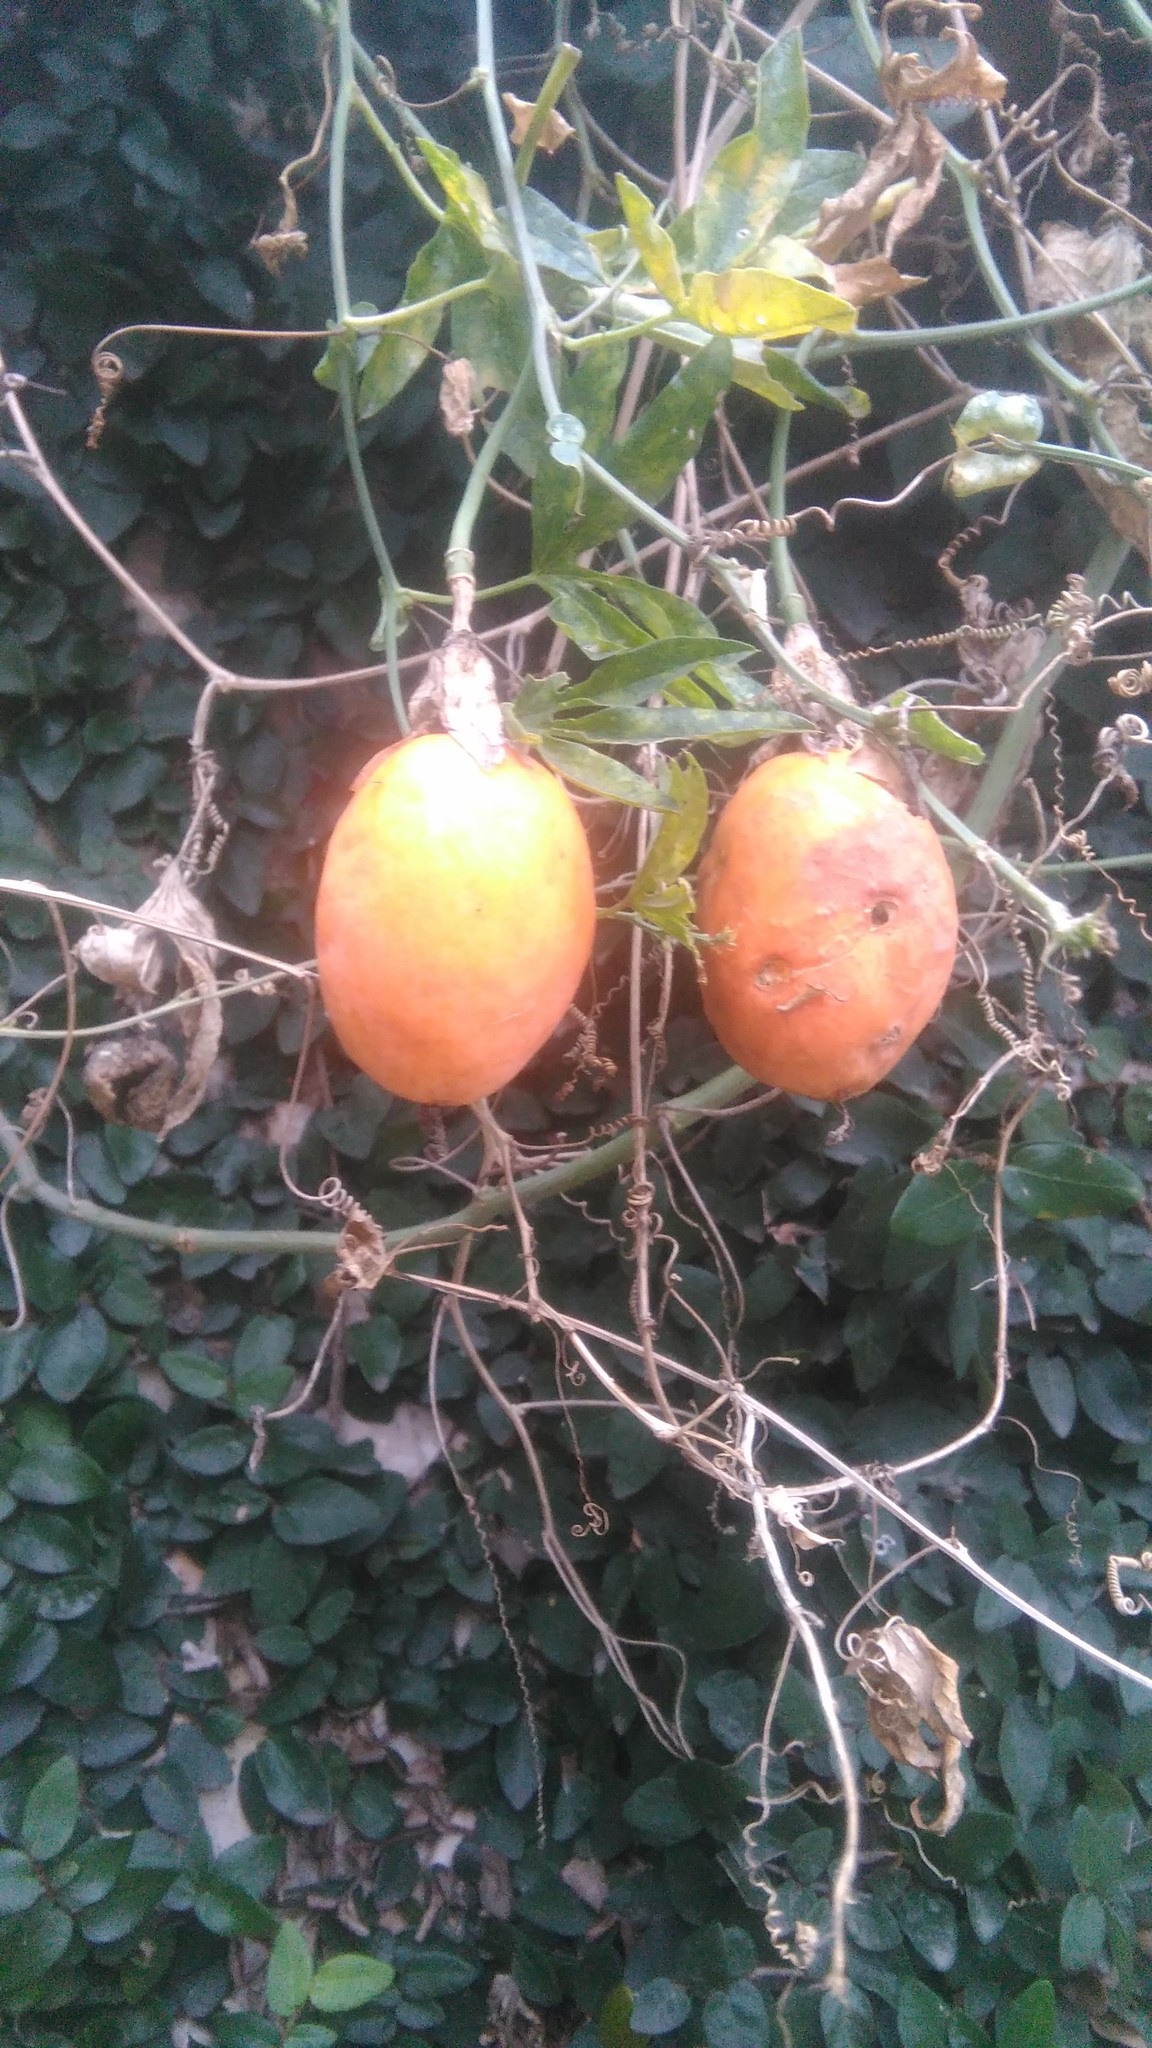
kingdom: Plantae
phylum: Tracheophyta
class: Magnoliopsida
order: Malpighiales
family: Passifloraceae
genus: Passiflora
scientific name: Passiflora caerulea
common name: Blue passionflower
